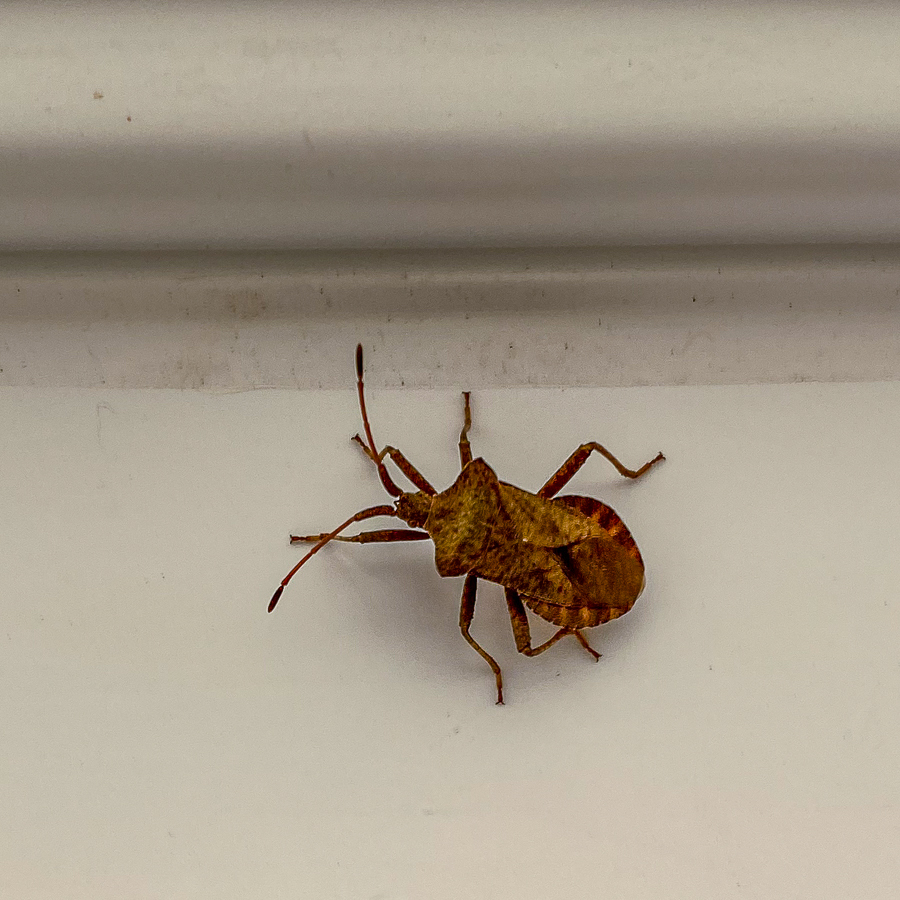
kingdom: Animalia
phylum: Arthropoda
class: Insecta
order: Hemiptera
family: Coreidae
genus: Coreus
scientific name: Coreus marginatus
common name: Dock bug
